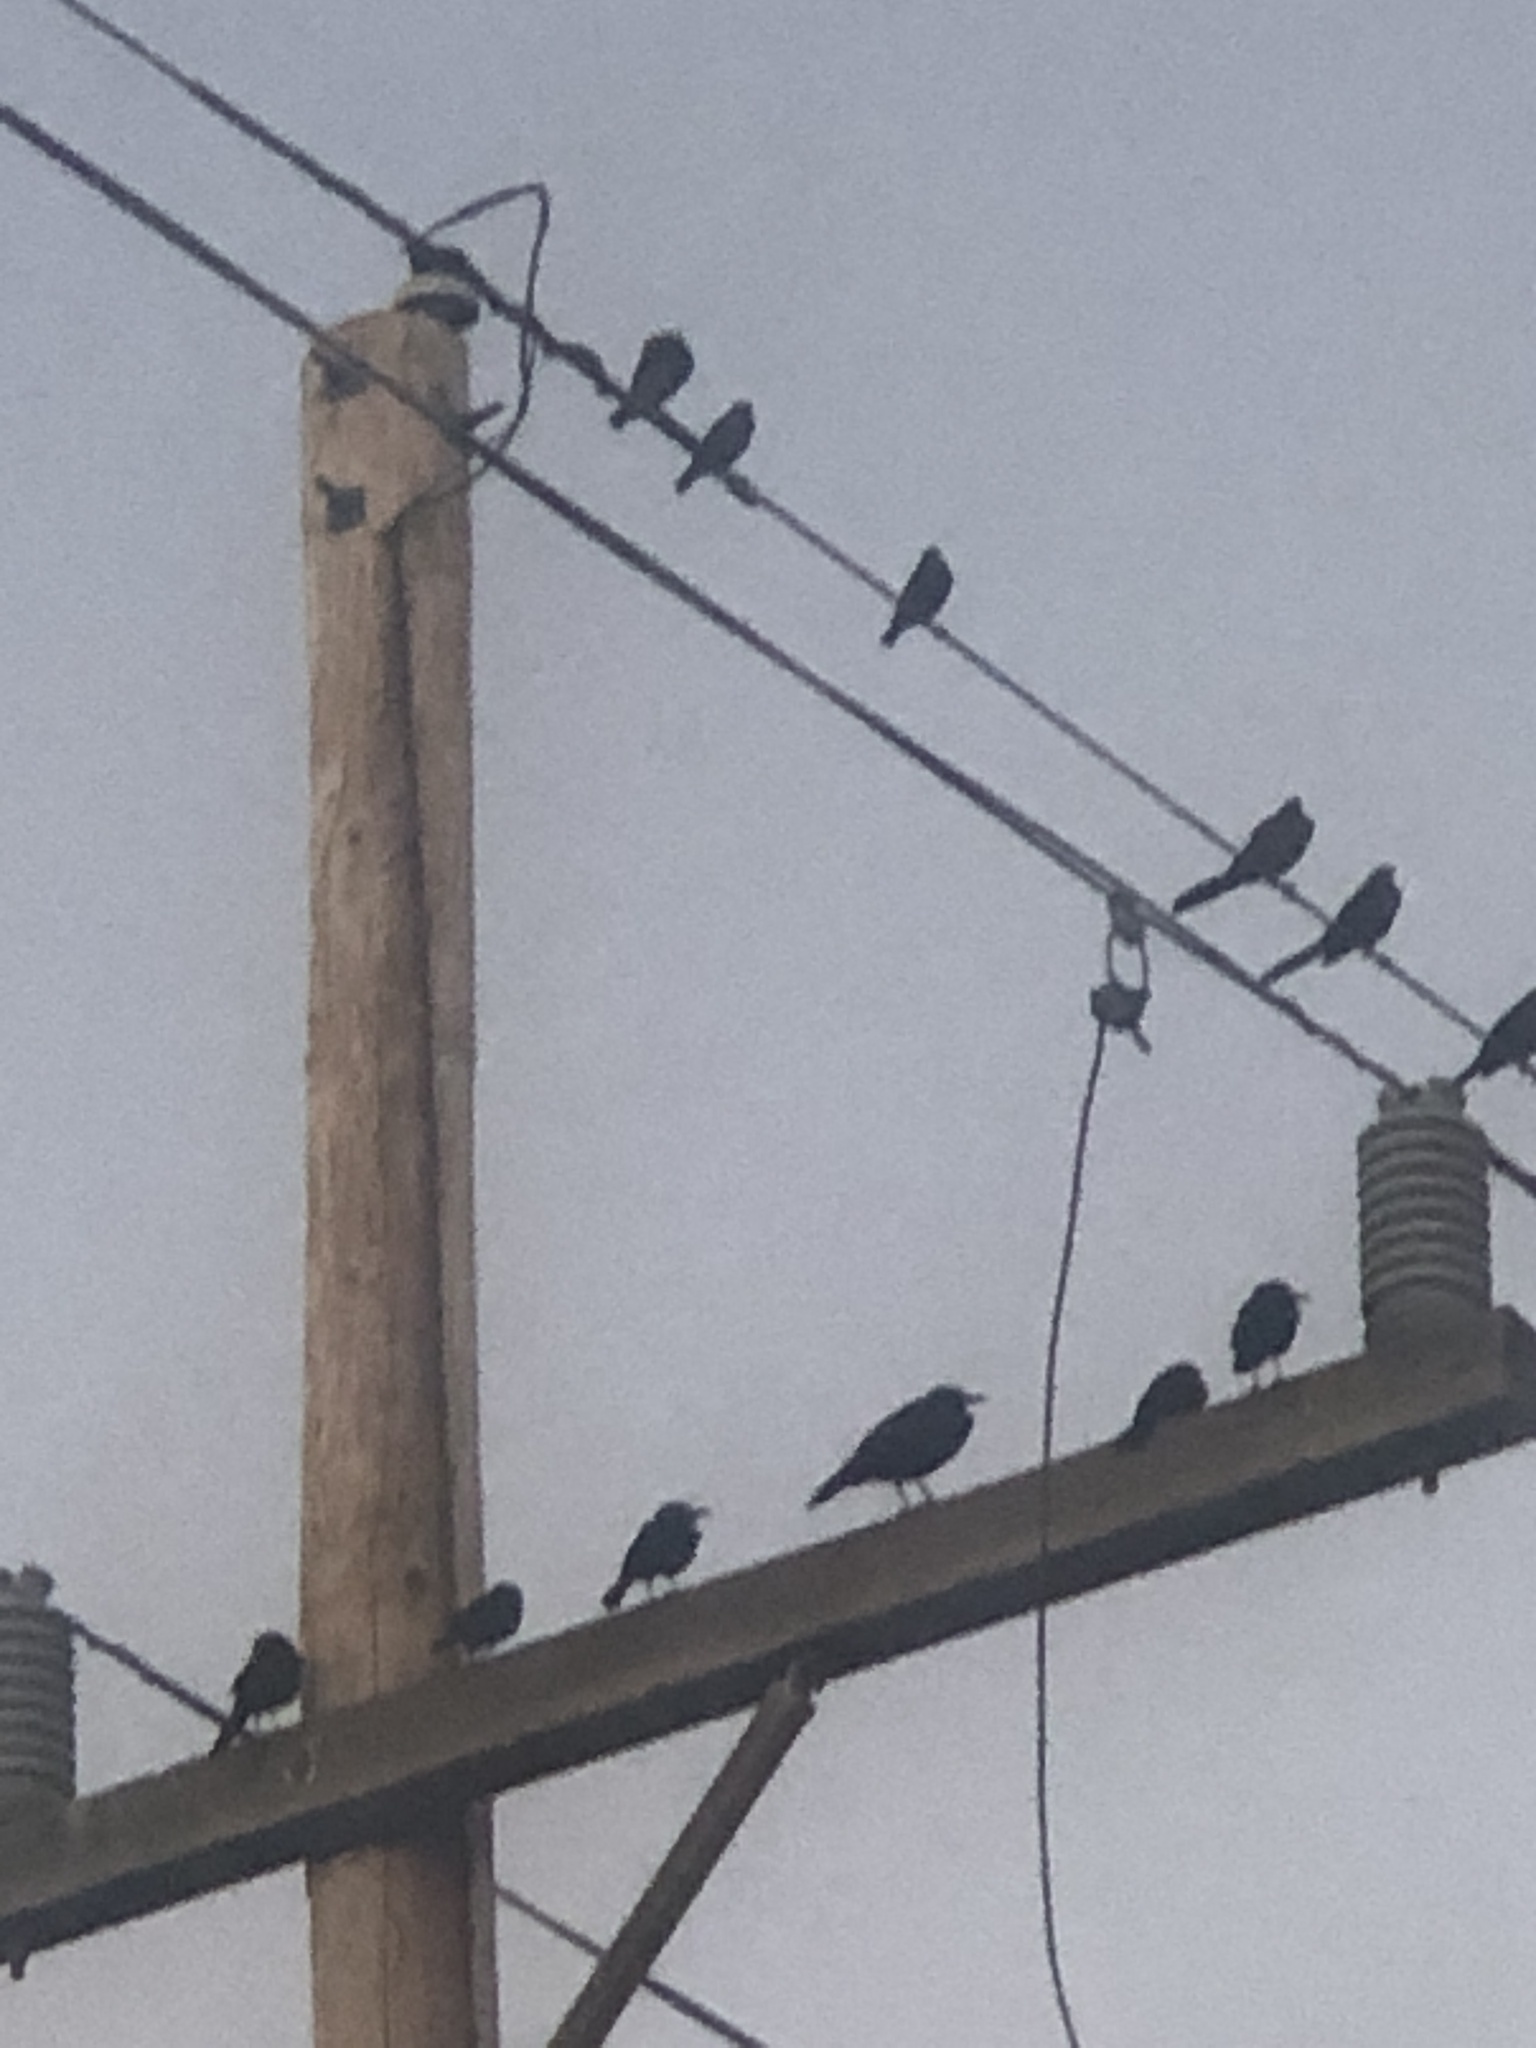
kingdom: Animalia
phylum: Chordata
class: Aves
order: Passeriformes
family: Icteridae
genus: Quiscalus
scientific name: Quiscalus mexicanus
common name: Great-tailed grackle
